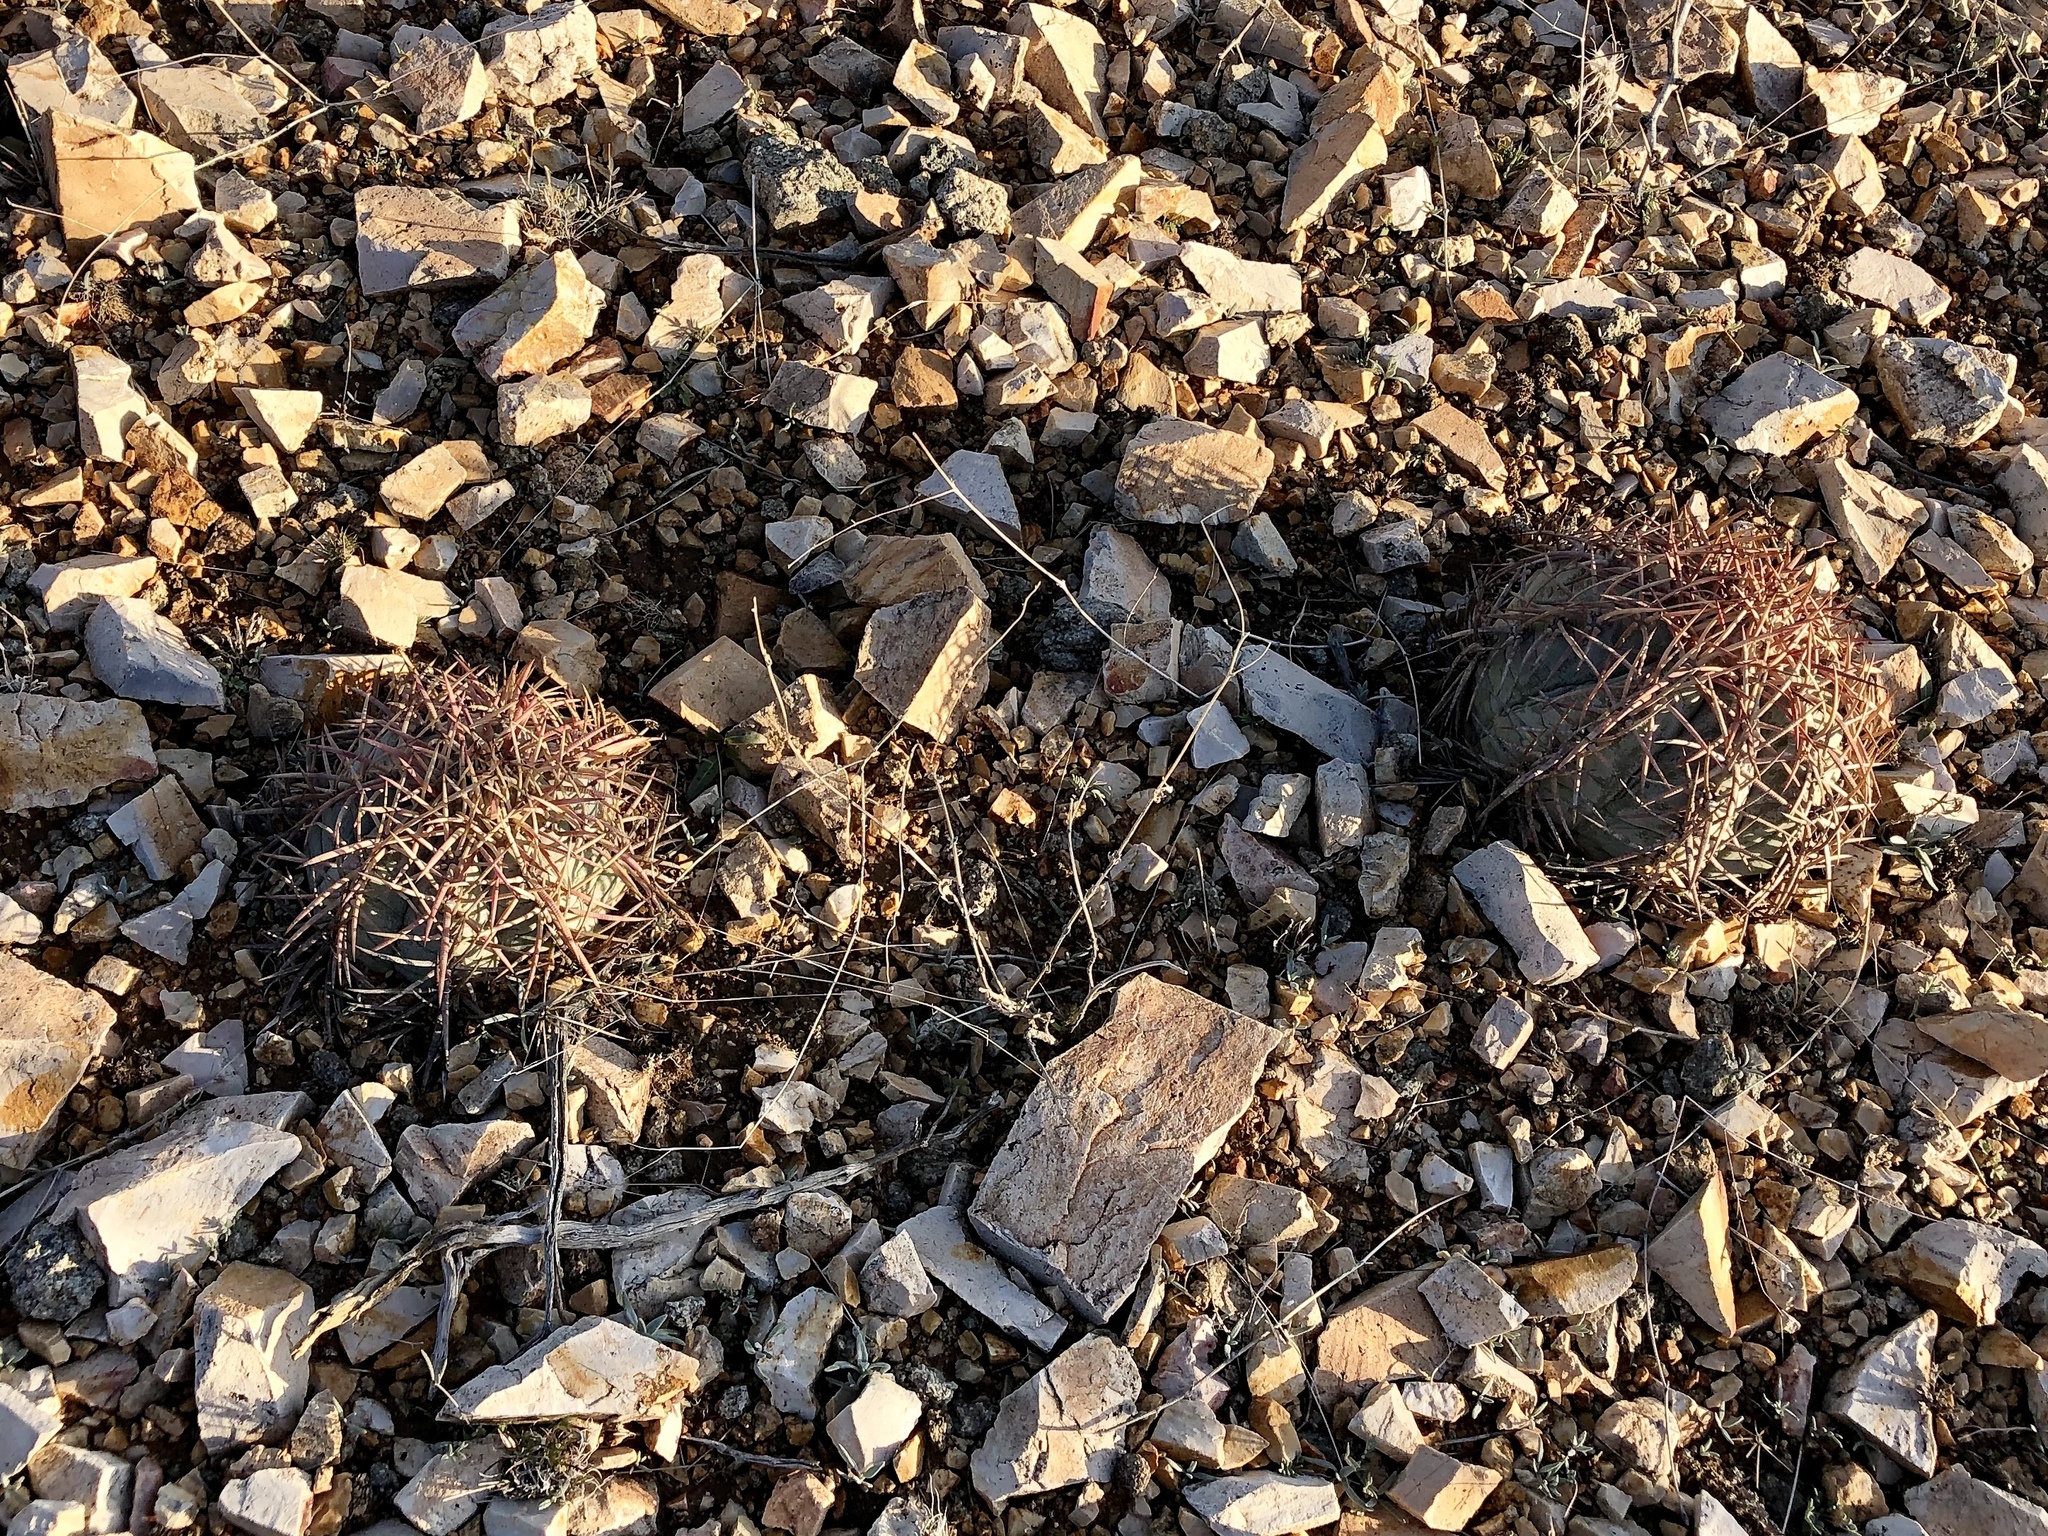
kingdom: Plantae
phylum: Tracheophyta
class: Magnoliopsida
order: Caryophyllales
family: Cactaceae
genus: Echinocactus
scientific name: Echinocactus horizonthalonius
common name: Devilshead
